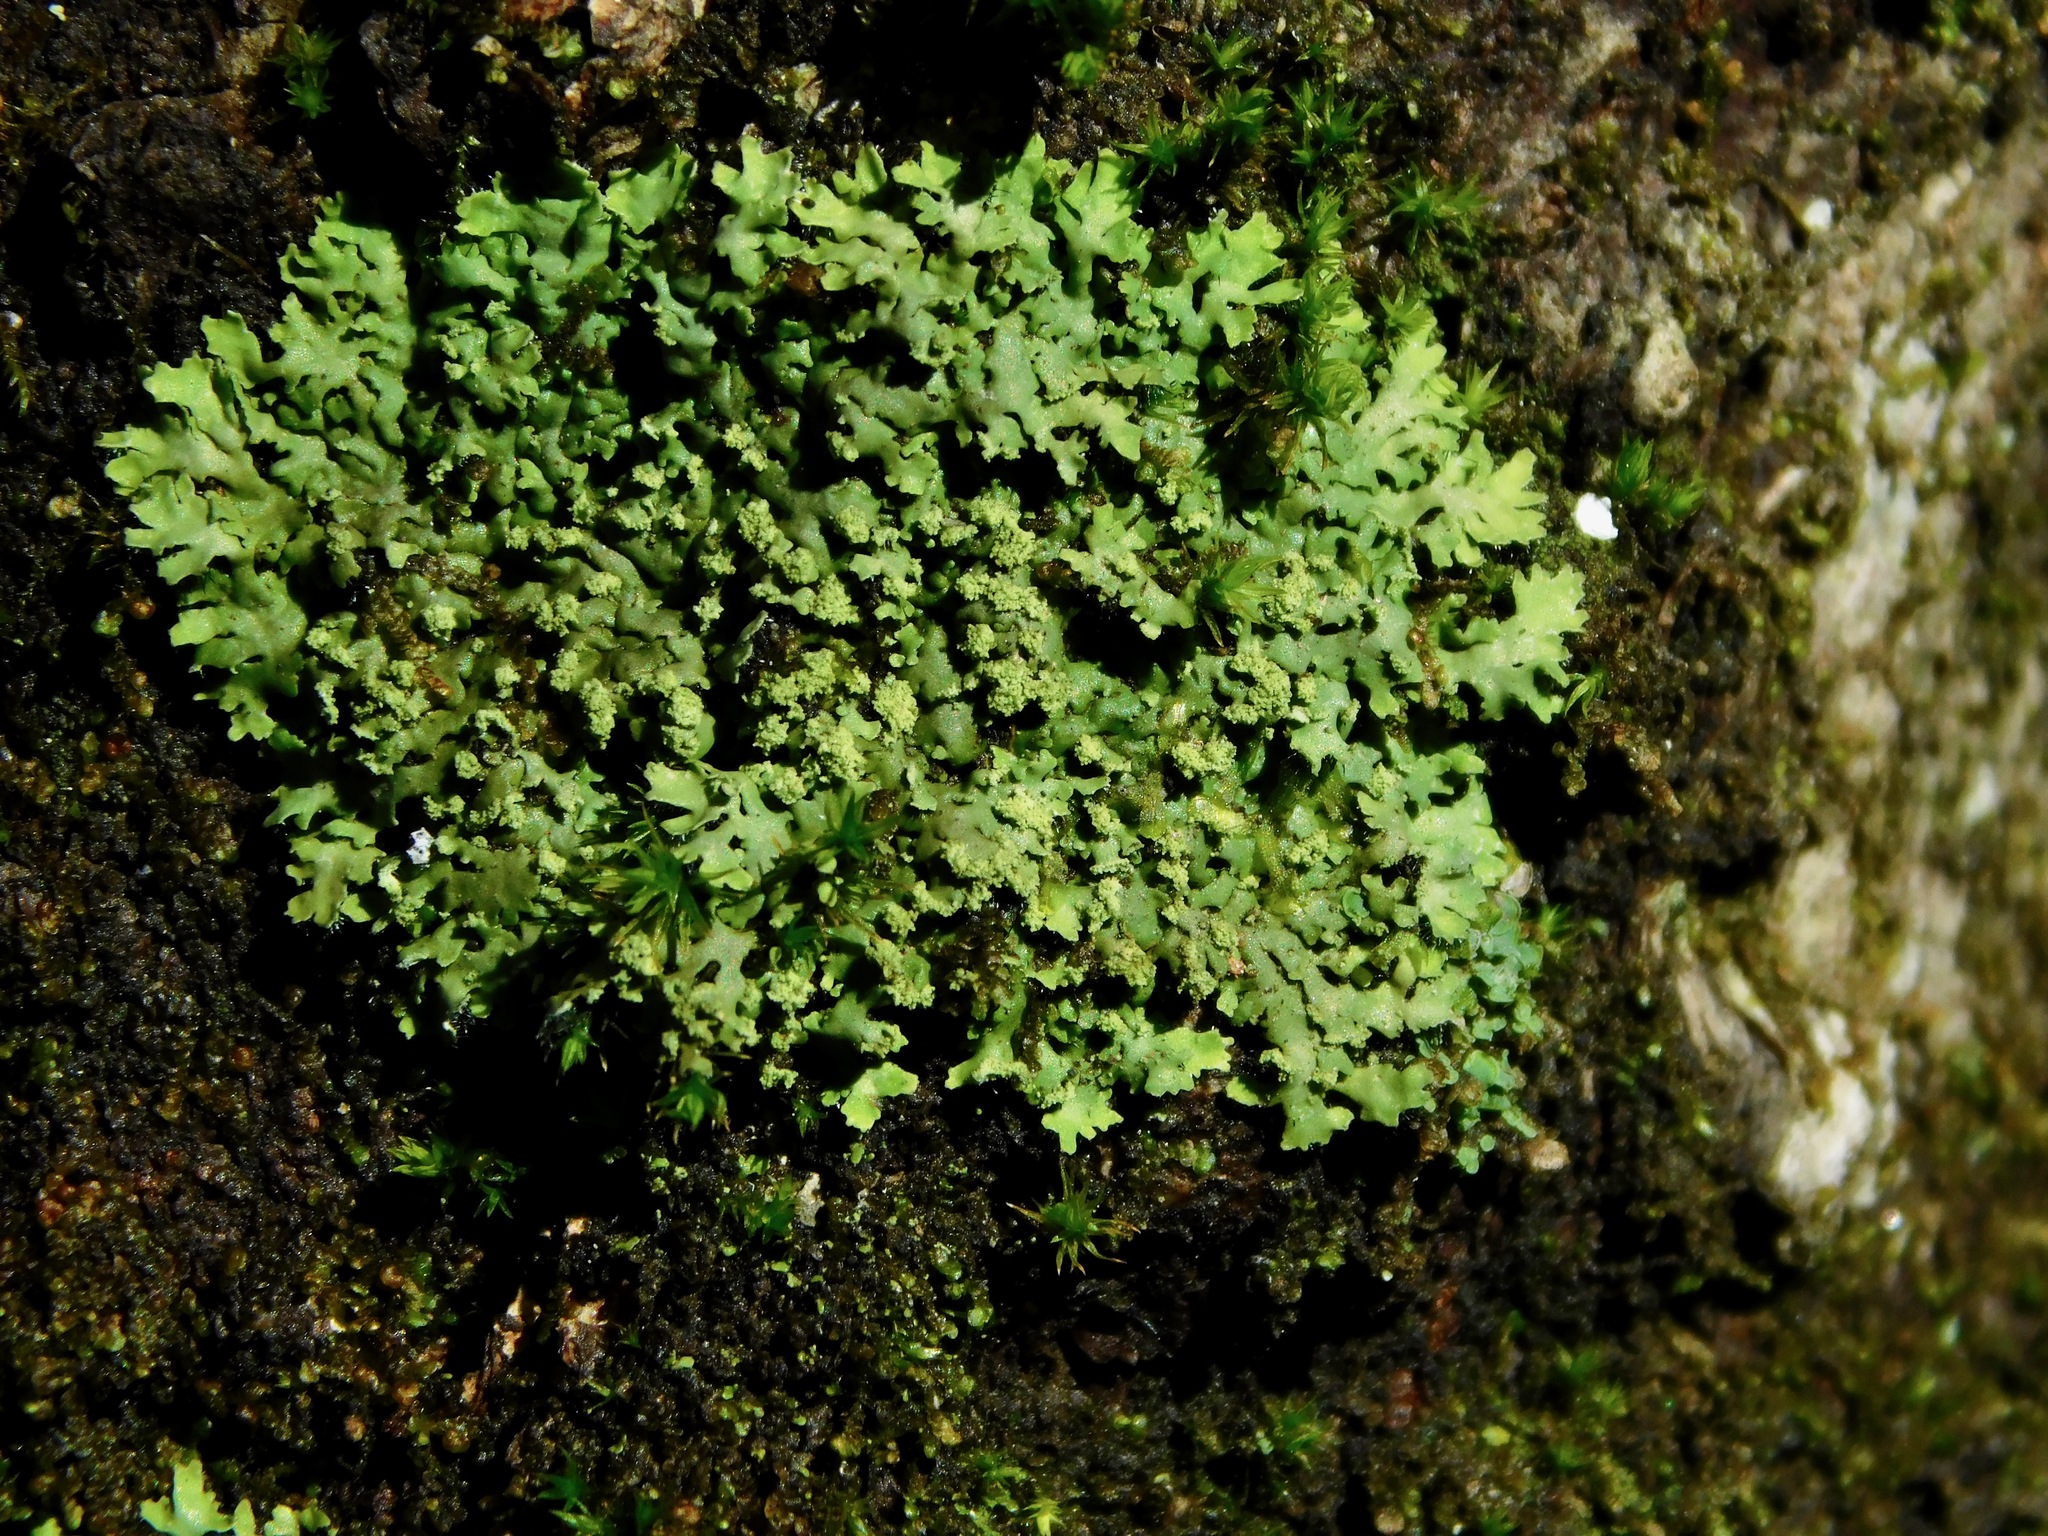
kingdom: Fungi
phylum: Ascomycota
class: Lecanoromycetes
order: Caliciales
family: Physciaceae
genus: Phaeophyscia
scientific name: Phaeophyscia ciliata
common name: Smooth shadow lichen
